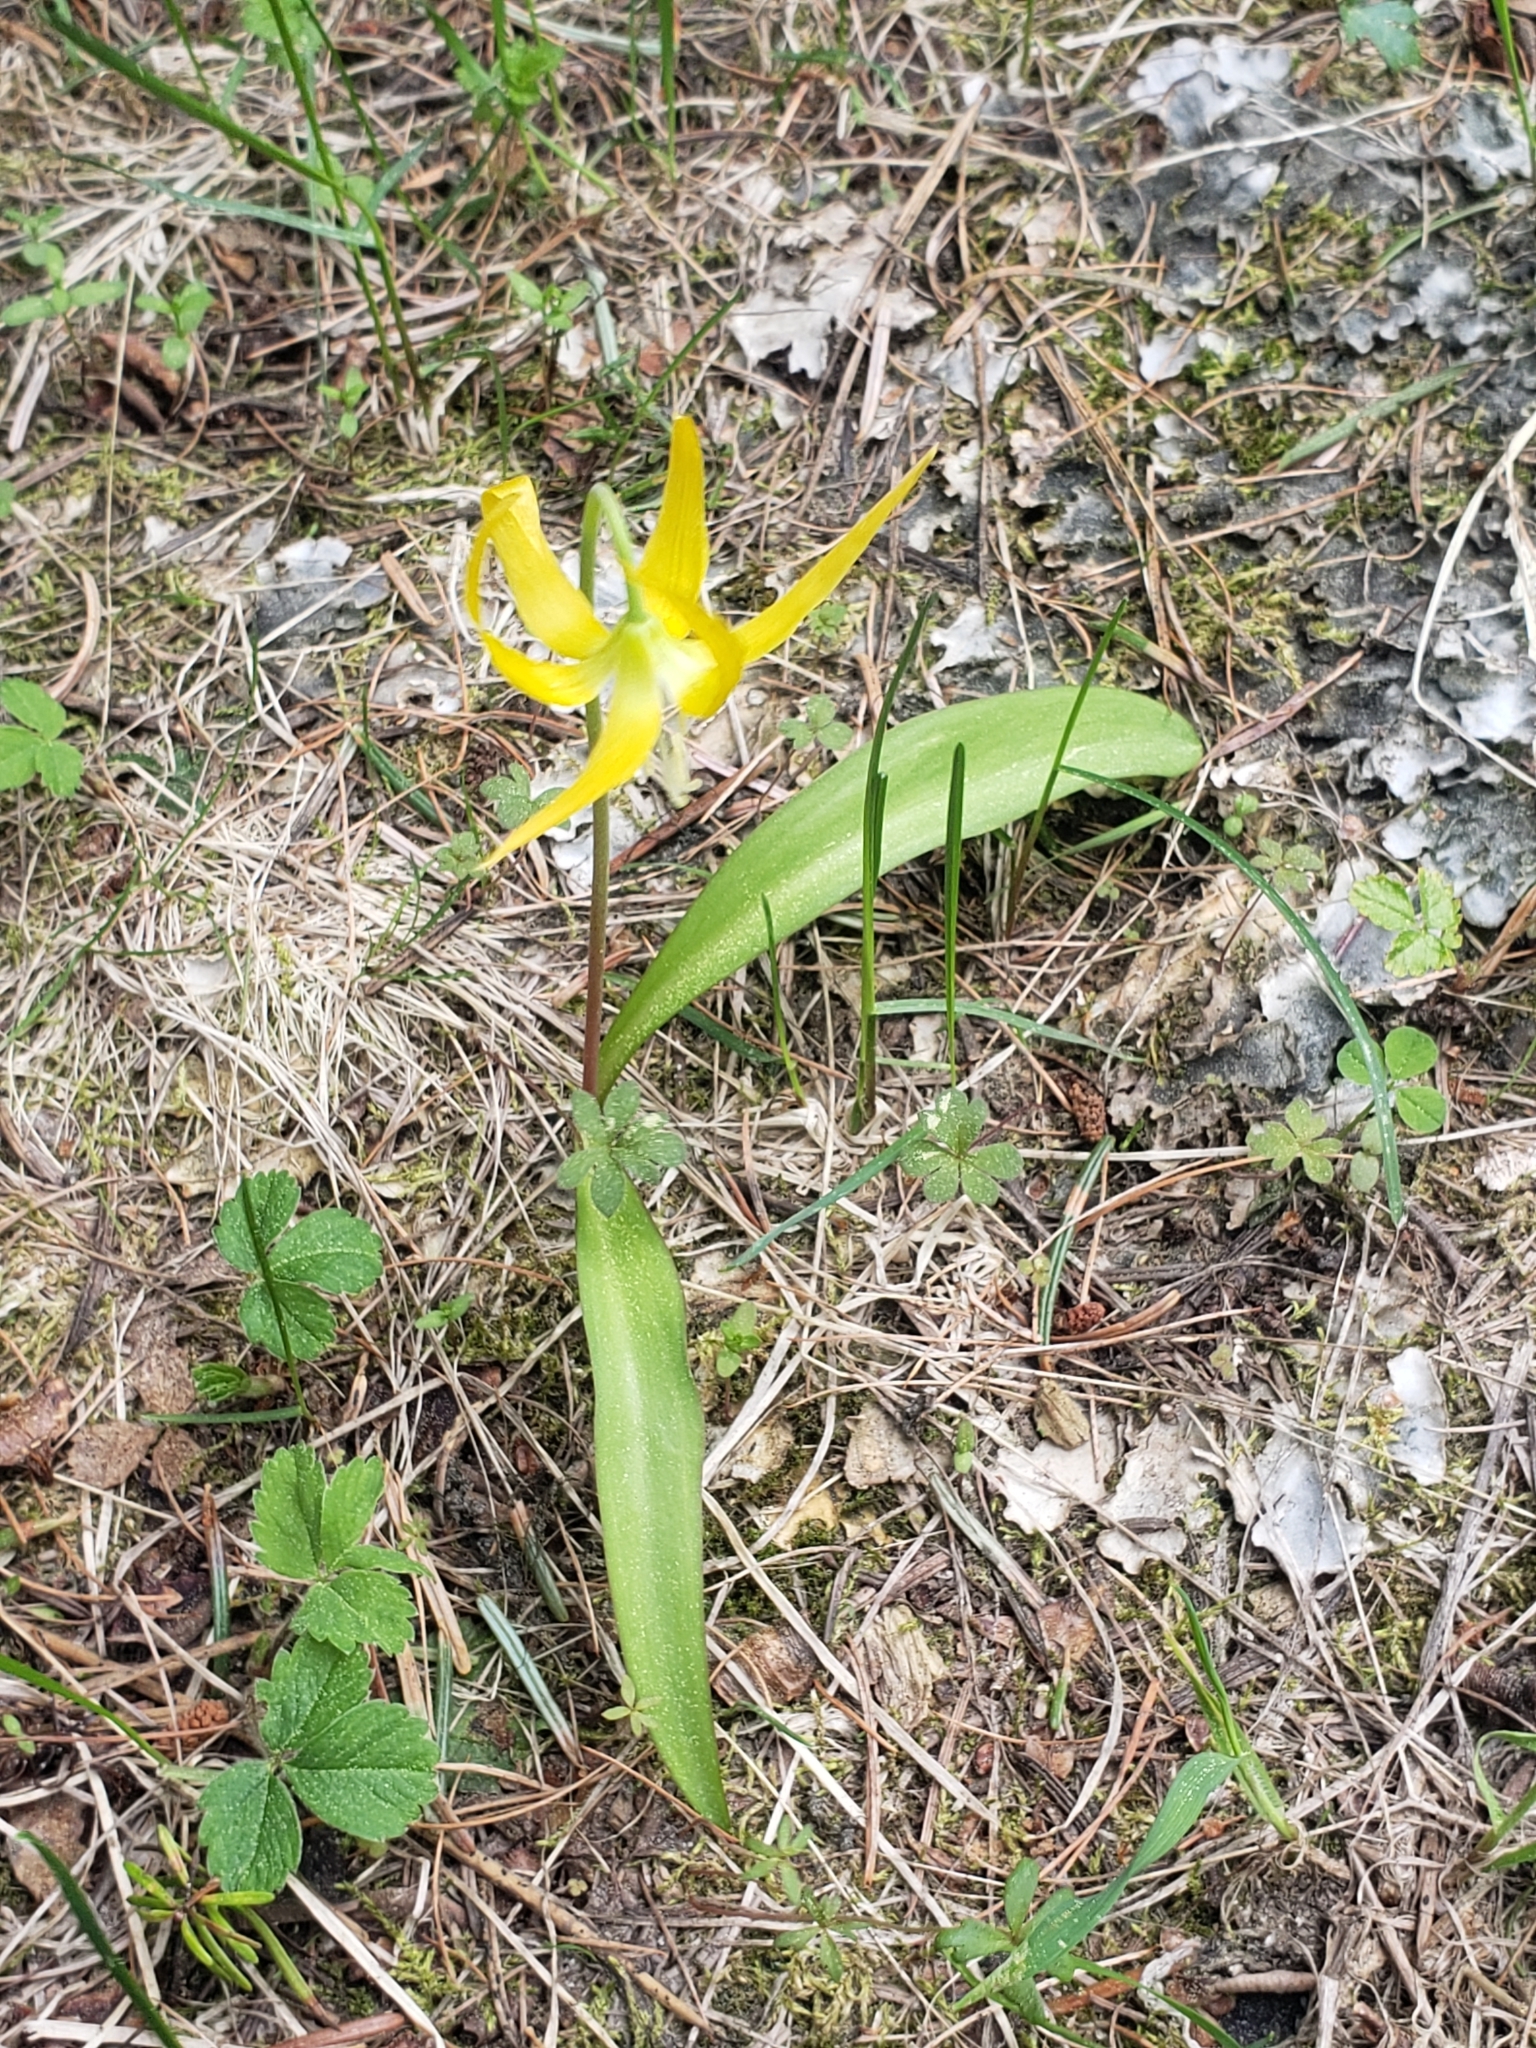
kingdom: Plantae
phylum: Tracheophyta
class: Liliopsida
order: Liliales
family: Liliaceae
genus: Erythronium
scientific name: Erythronium grandiflorum
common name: Avalanche-lily
